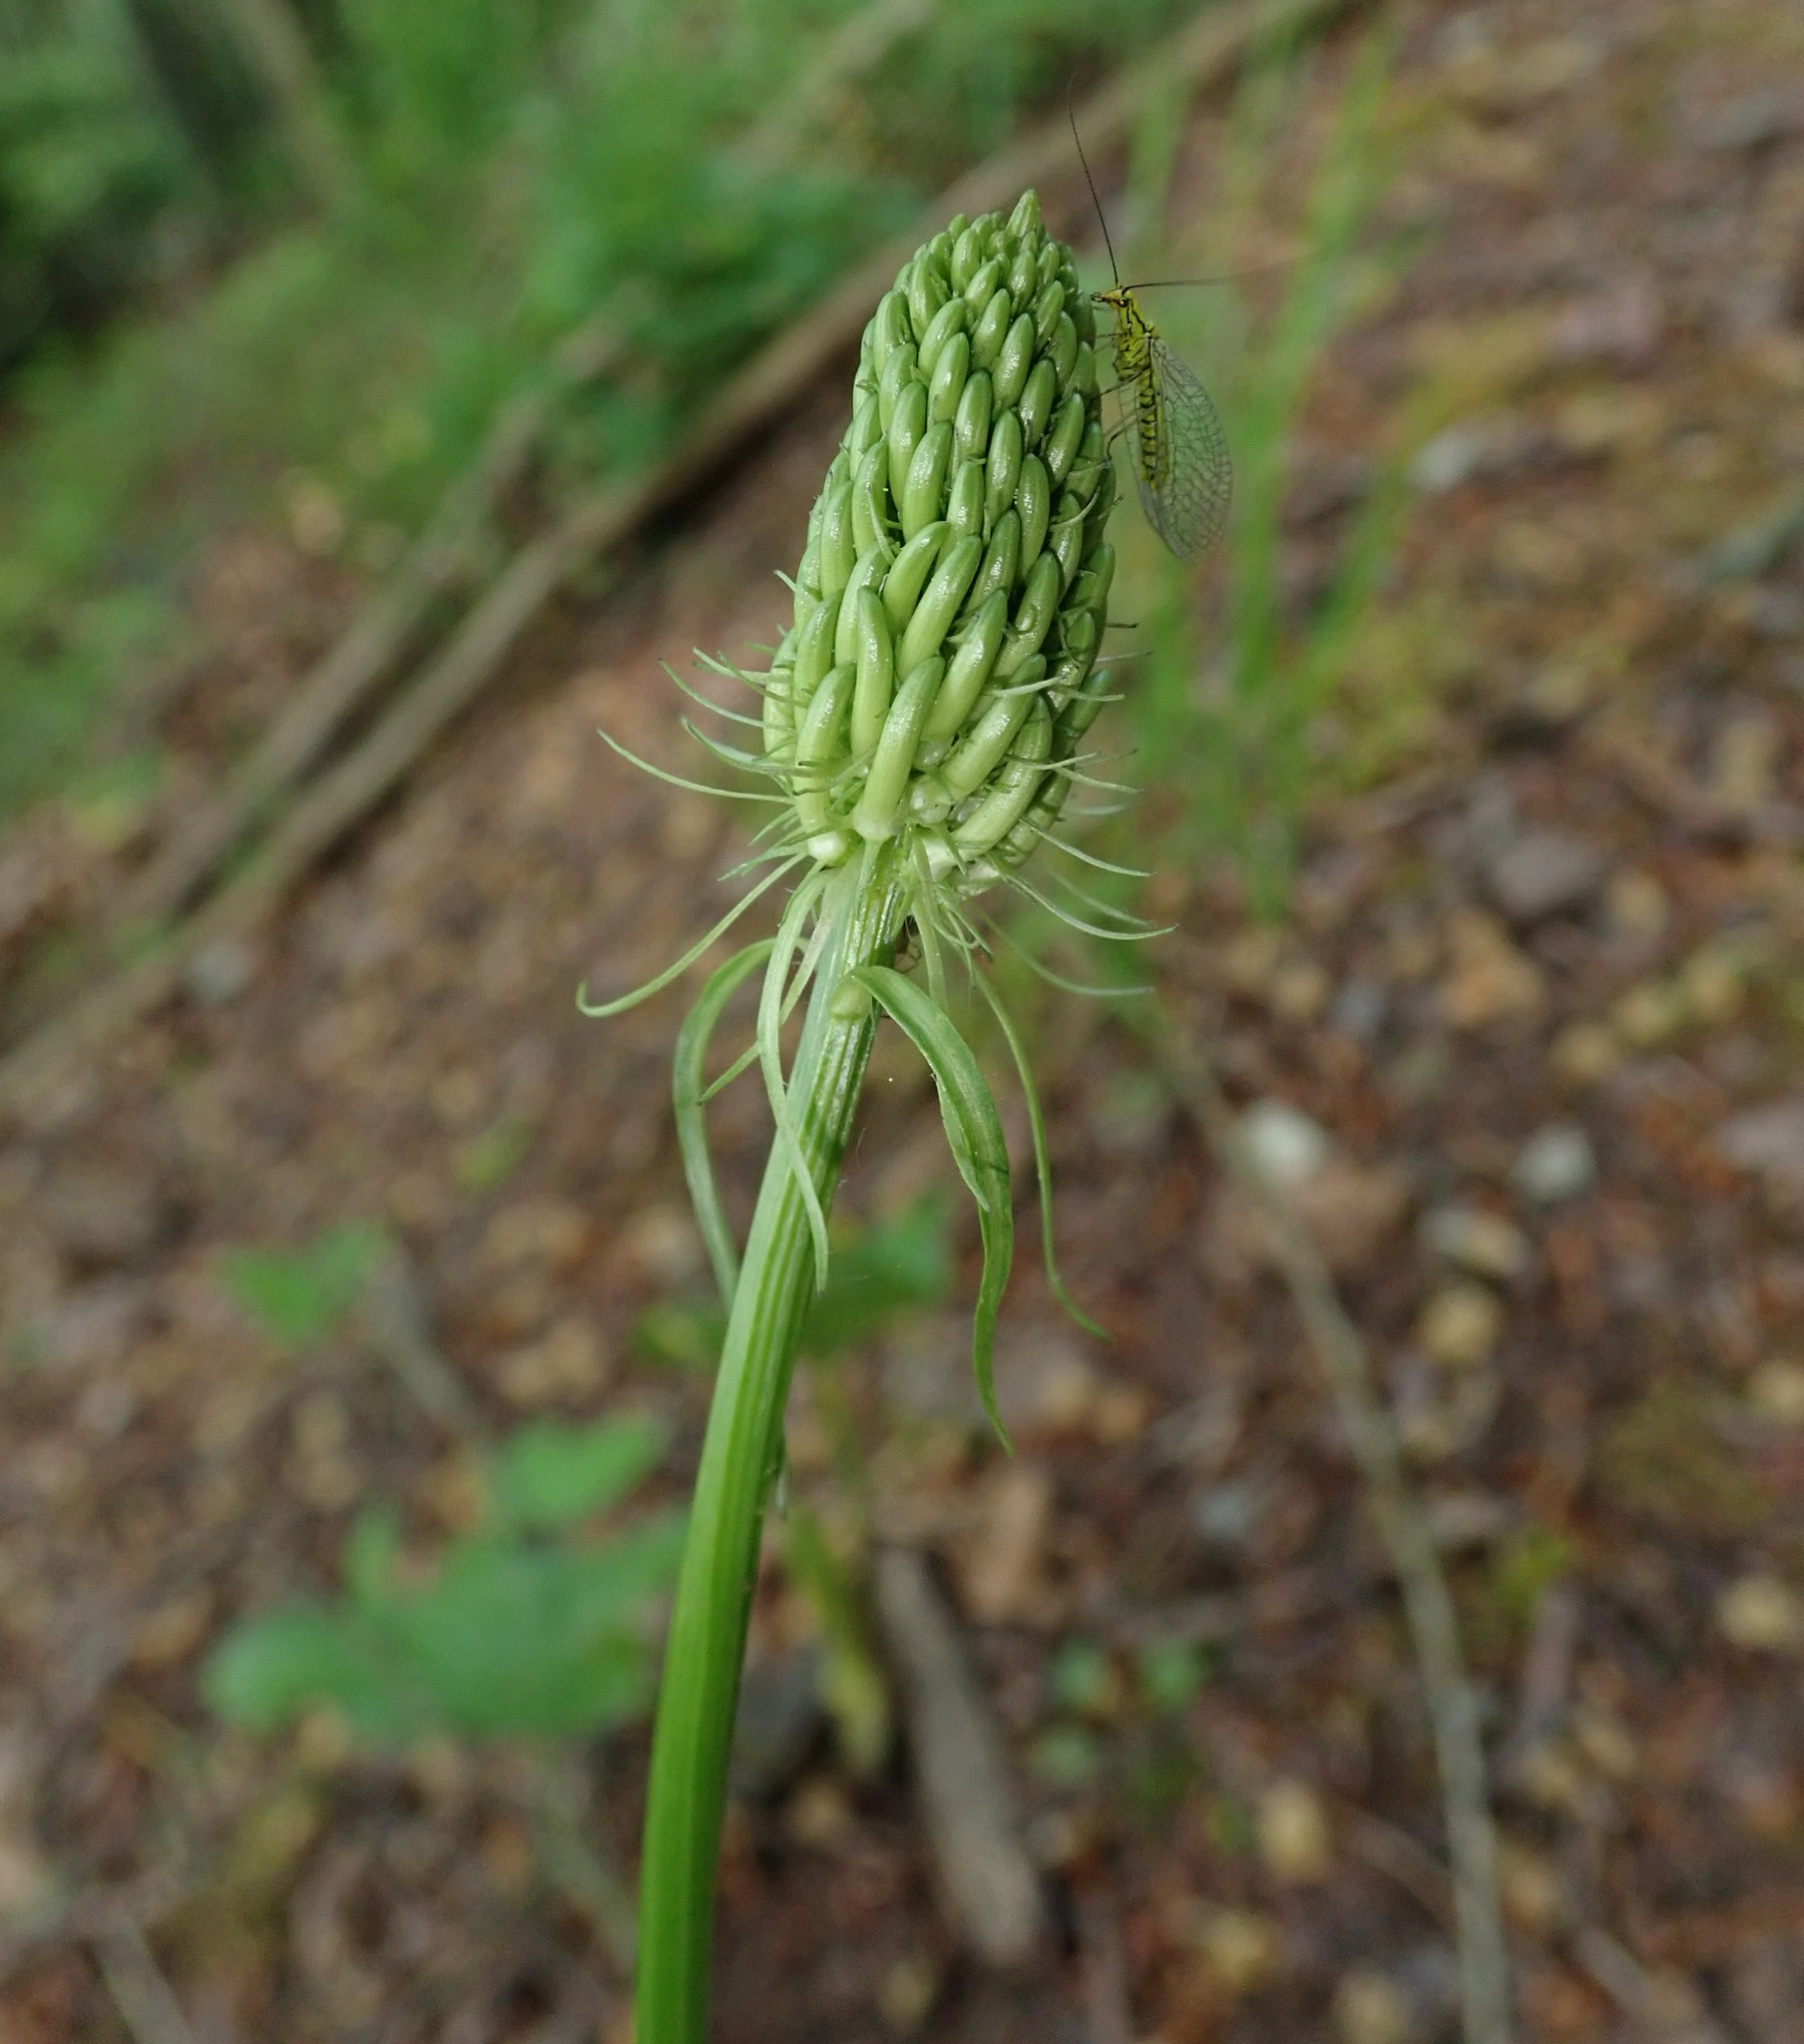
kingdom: Plantae
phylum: Tracheophyta
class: Magnoliopsida
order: Asterales
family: Campanulaceae
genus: Phyteuma
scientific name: Phyteuma spicatum
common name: Spiked rampion
